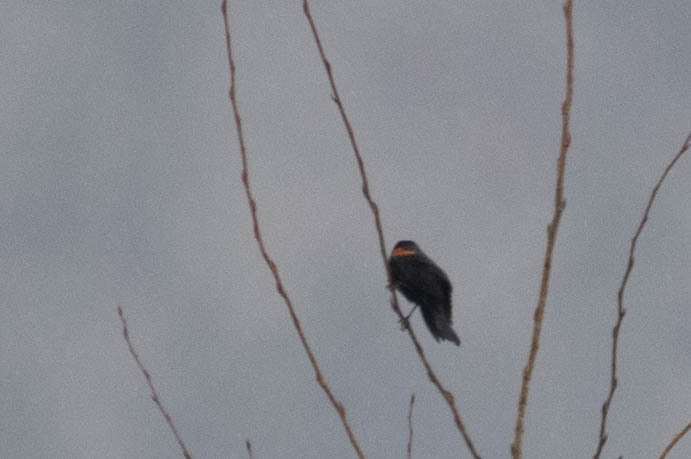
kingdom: Animalia
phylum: Chordata
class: Aves
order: Passeriformes
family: Icteridae
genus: Agelaius
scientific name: Agelaius phoeniceus
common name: Red-winged blackbird
